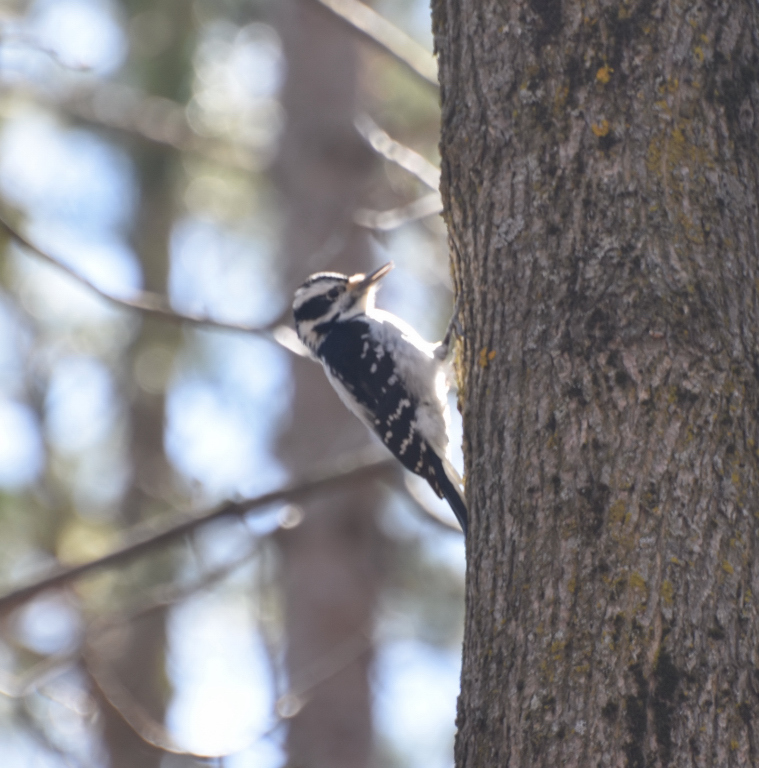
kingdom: Animalia
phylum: Chordata
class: Aves
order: Piciformes
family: Picidae
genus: Dryobates
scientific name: Dryobates pubescens
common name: Downy woodpecker
